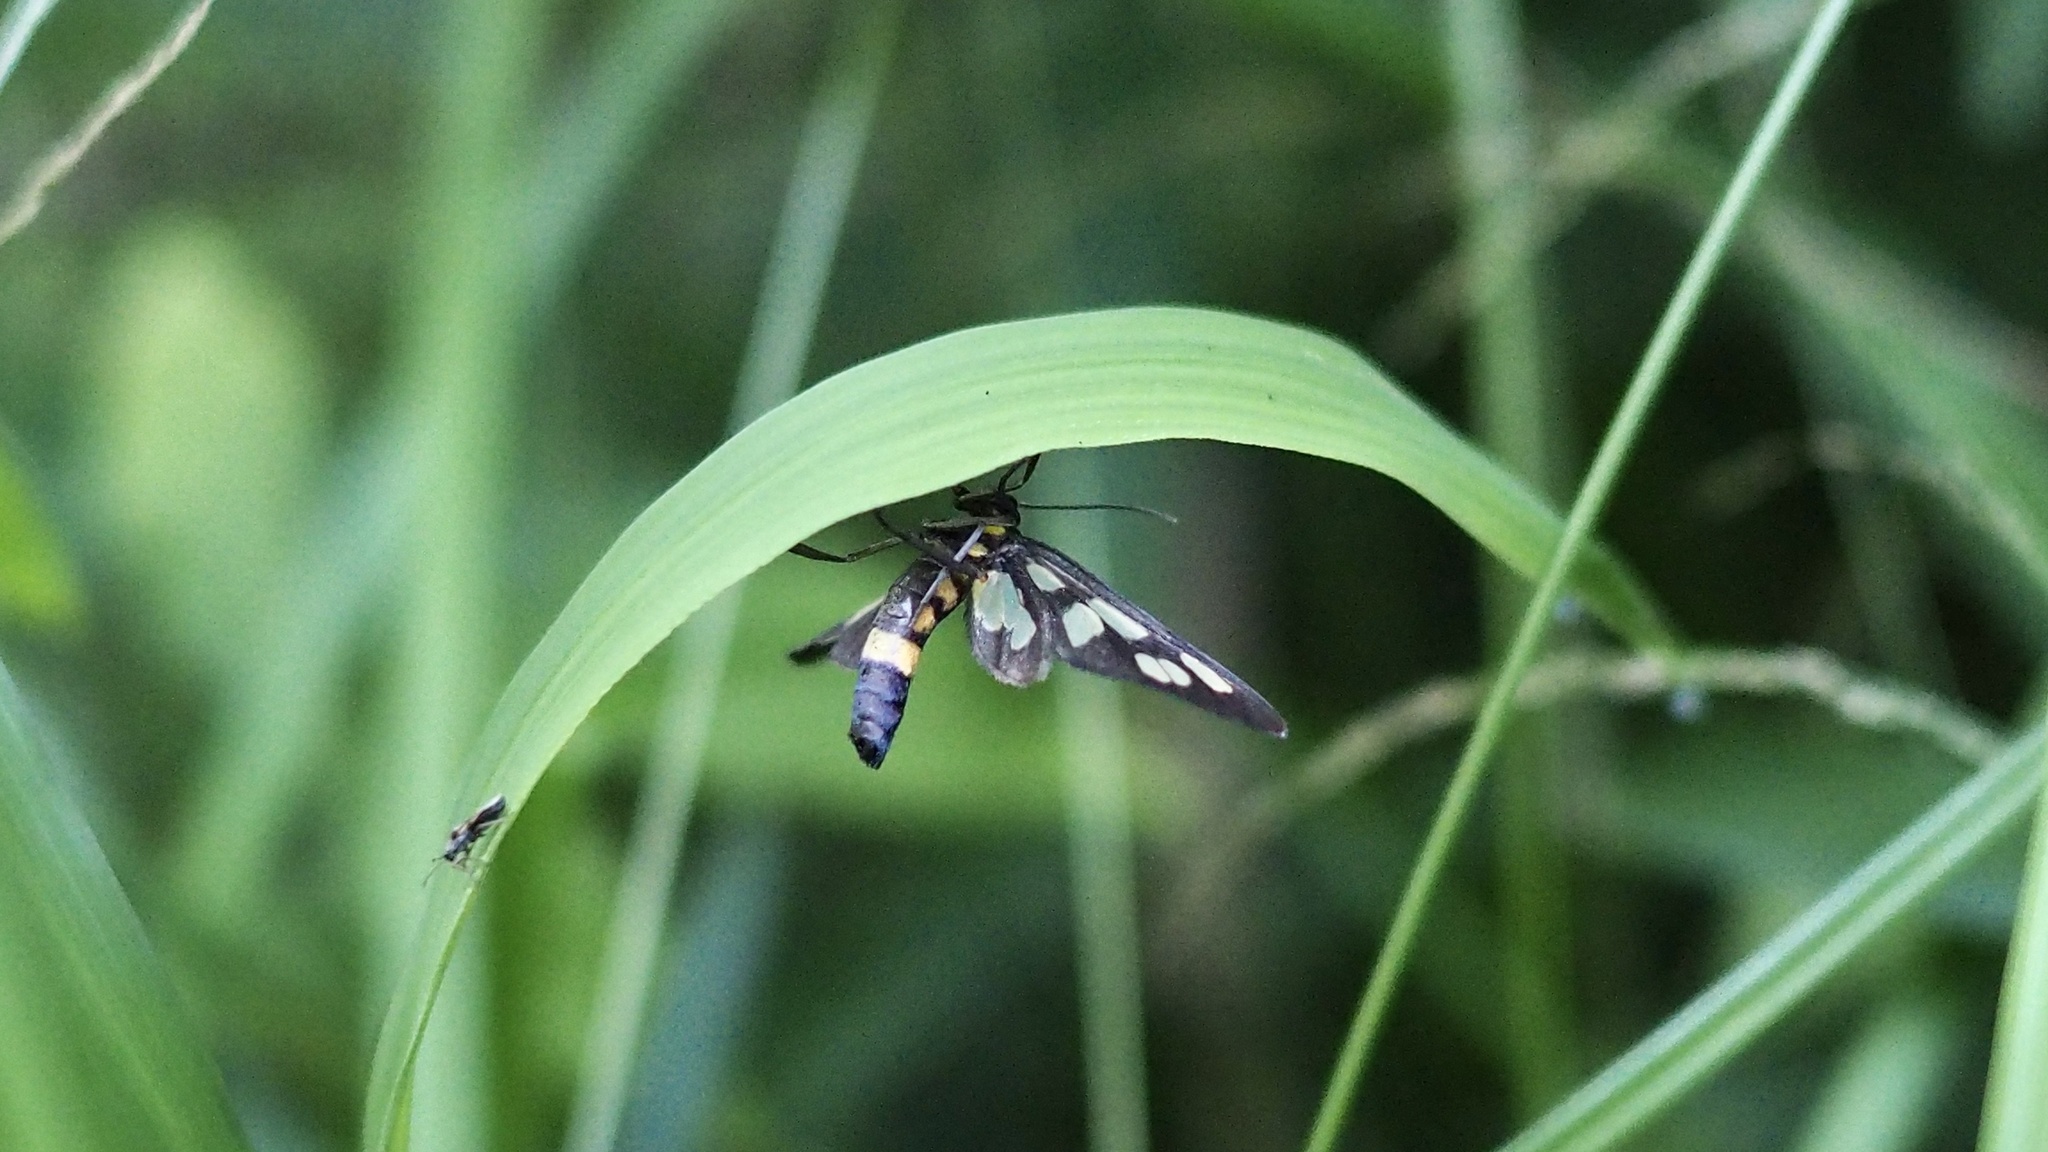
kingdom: Animalia
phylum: Arthropoda
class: Insecta
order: Lepidoptera
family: Erebidae
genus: Amata
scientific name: Amata fortunei
